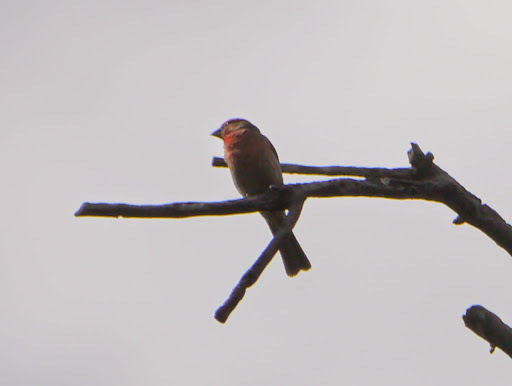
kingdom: Animalia
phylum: Chordata
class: Aves
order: Passeriformes
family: Fringillidae
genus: Haemorhous
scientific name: Haemorhous mexicanus
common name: House finch
